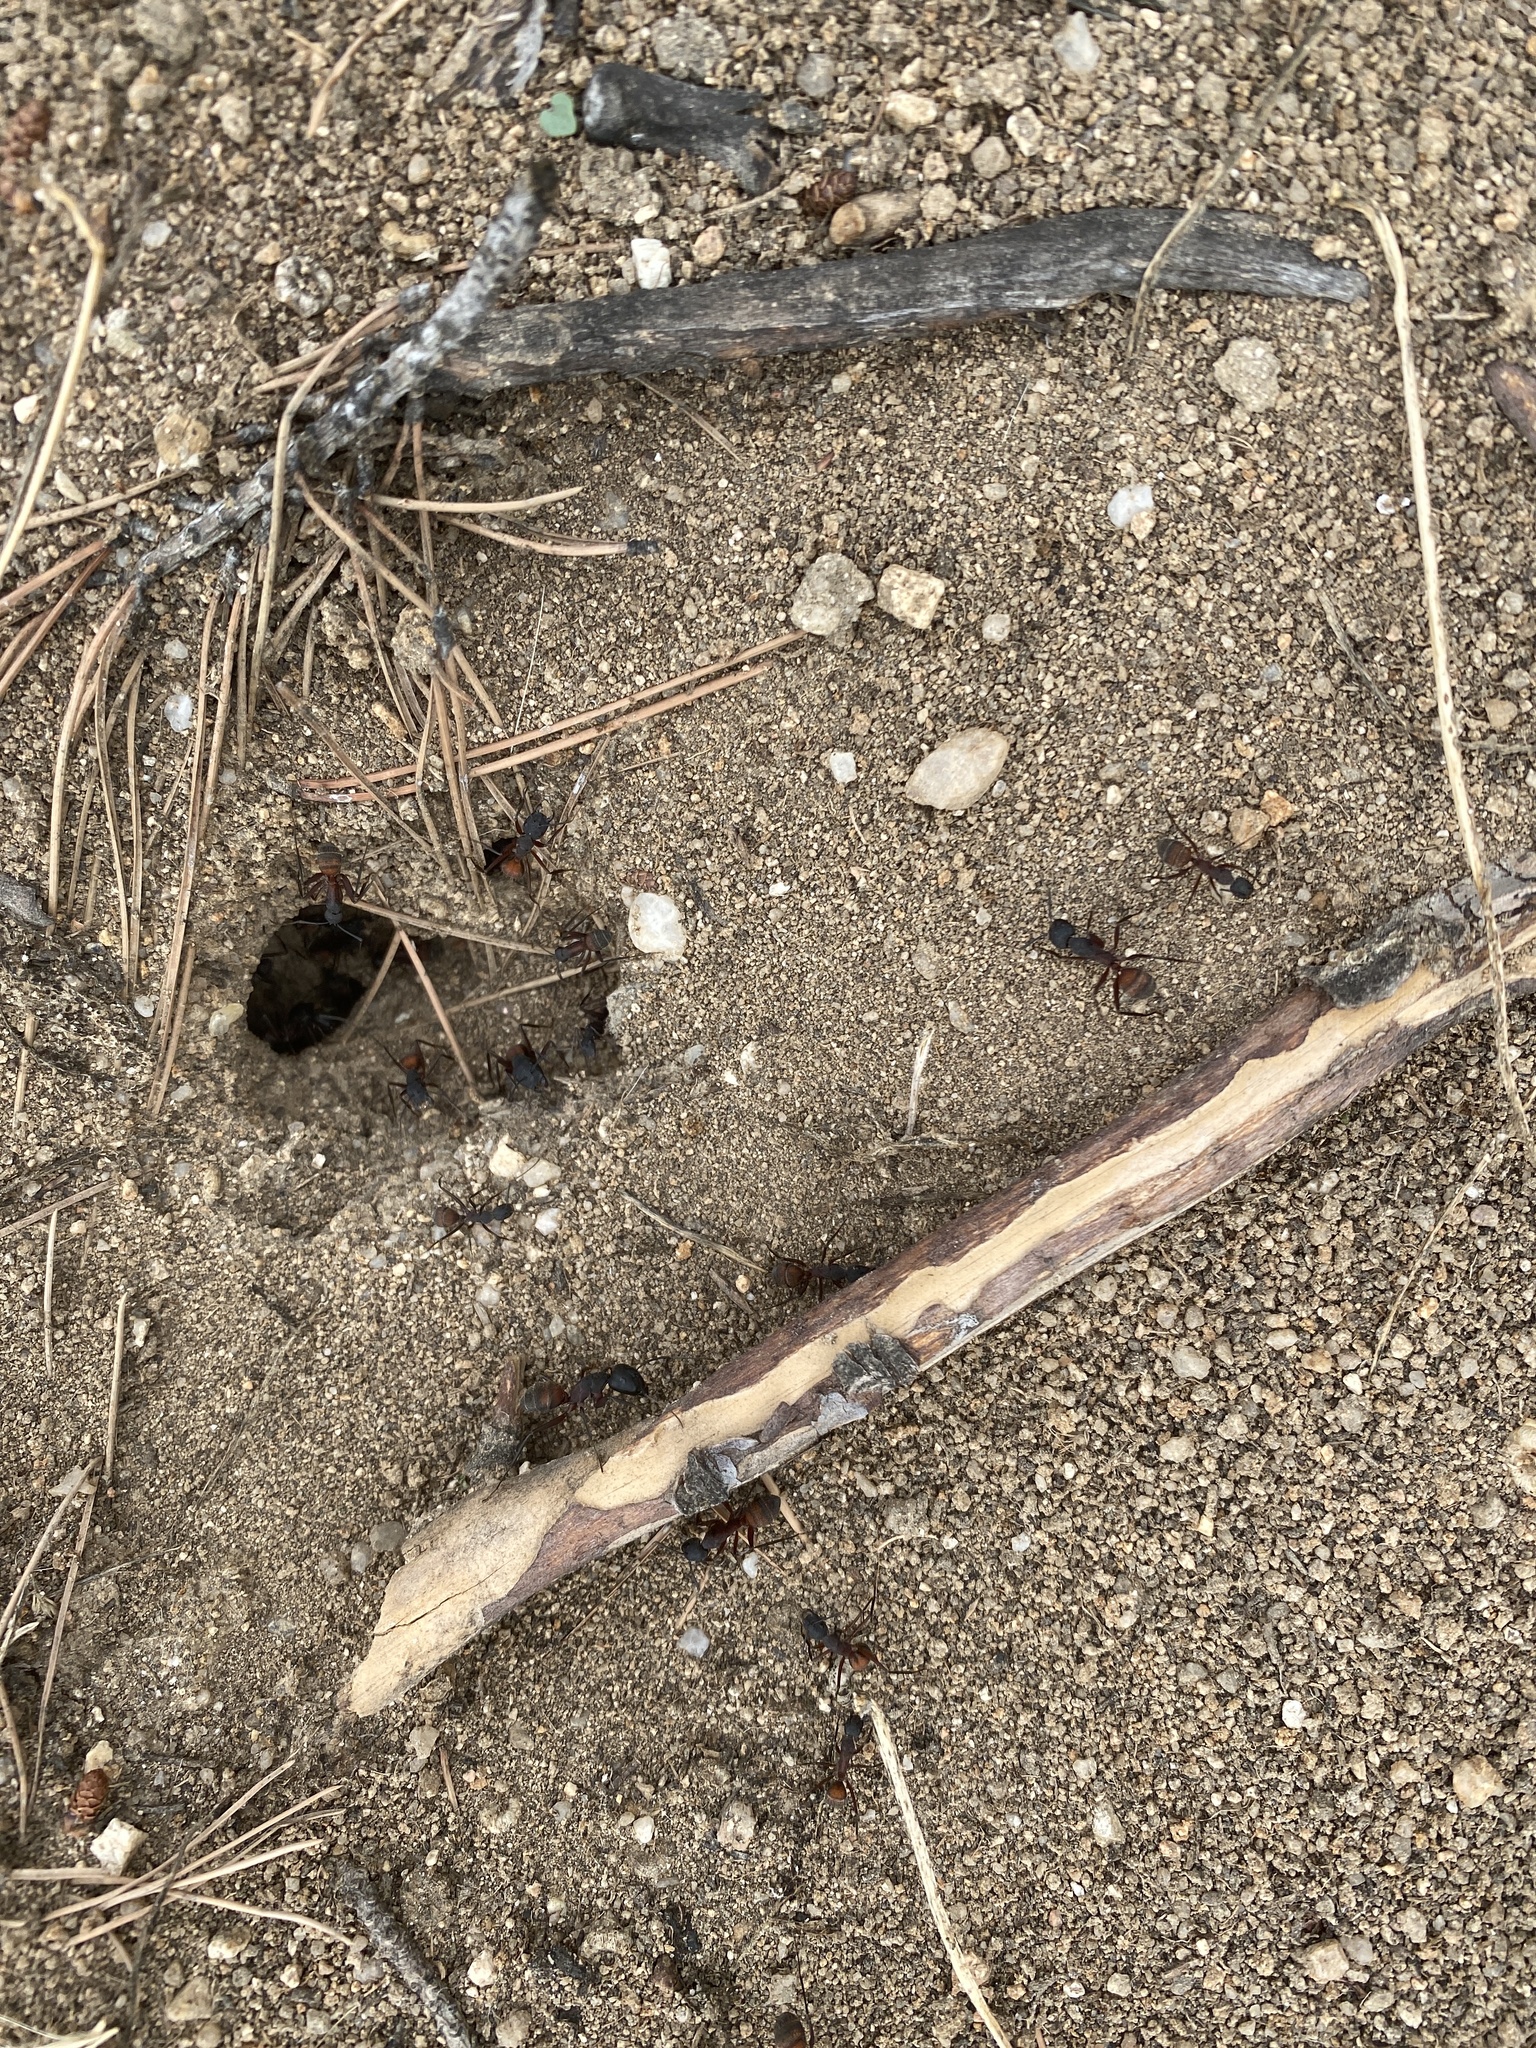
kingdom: Animalia
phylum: Arthropoda
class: Insecta
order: Hymenoptera
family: Formicidae
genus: Camponotus
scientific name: Camponotus cruentatus
